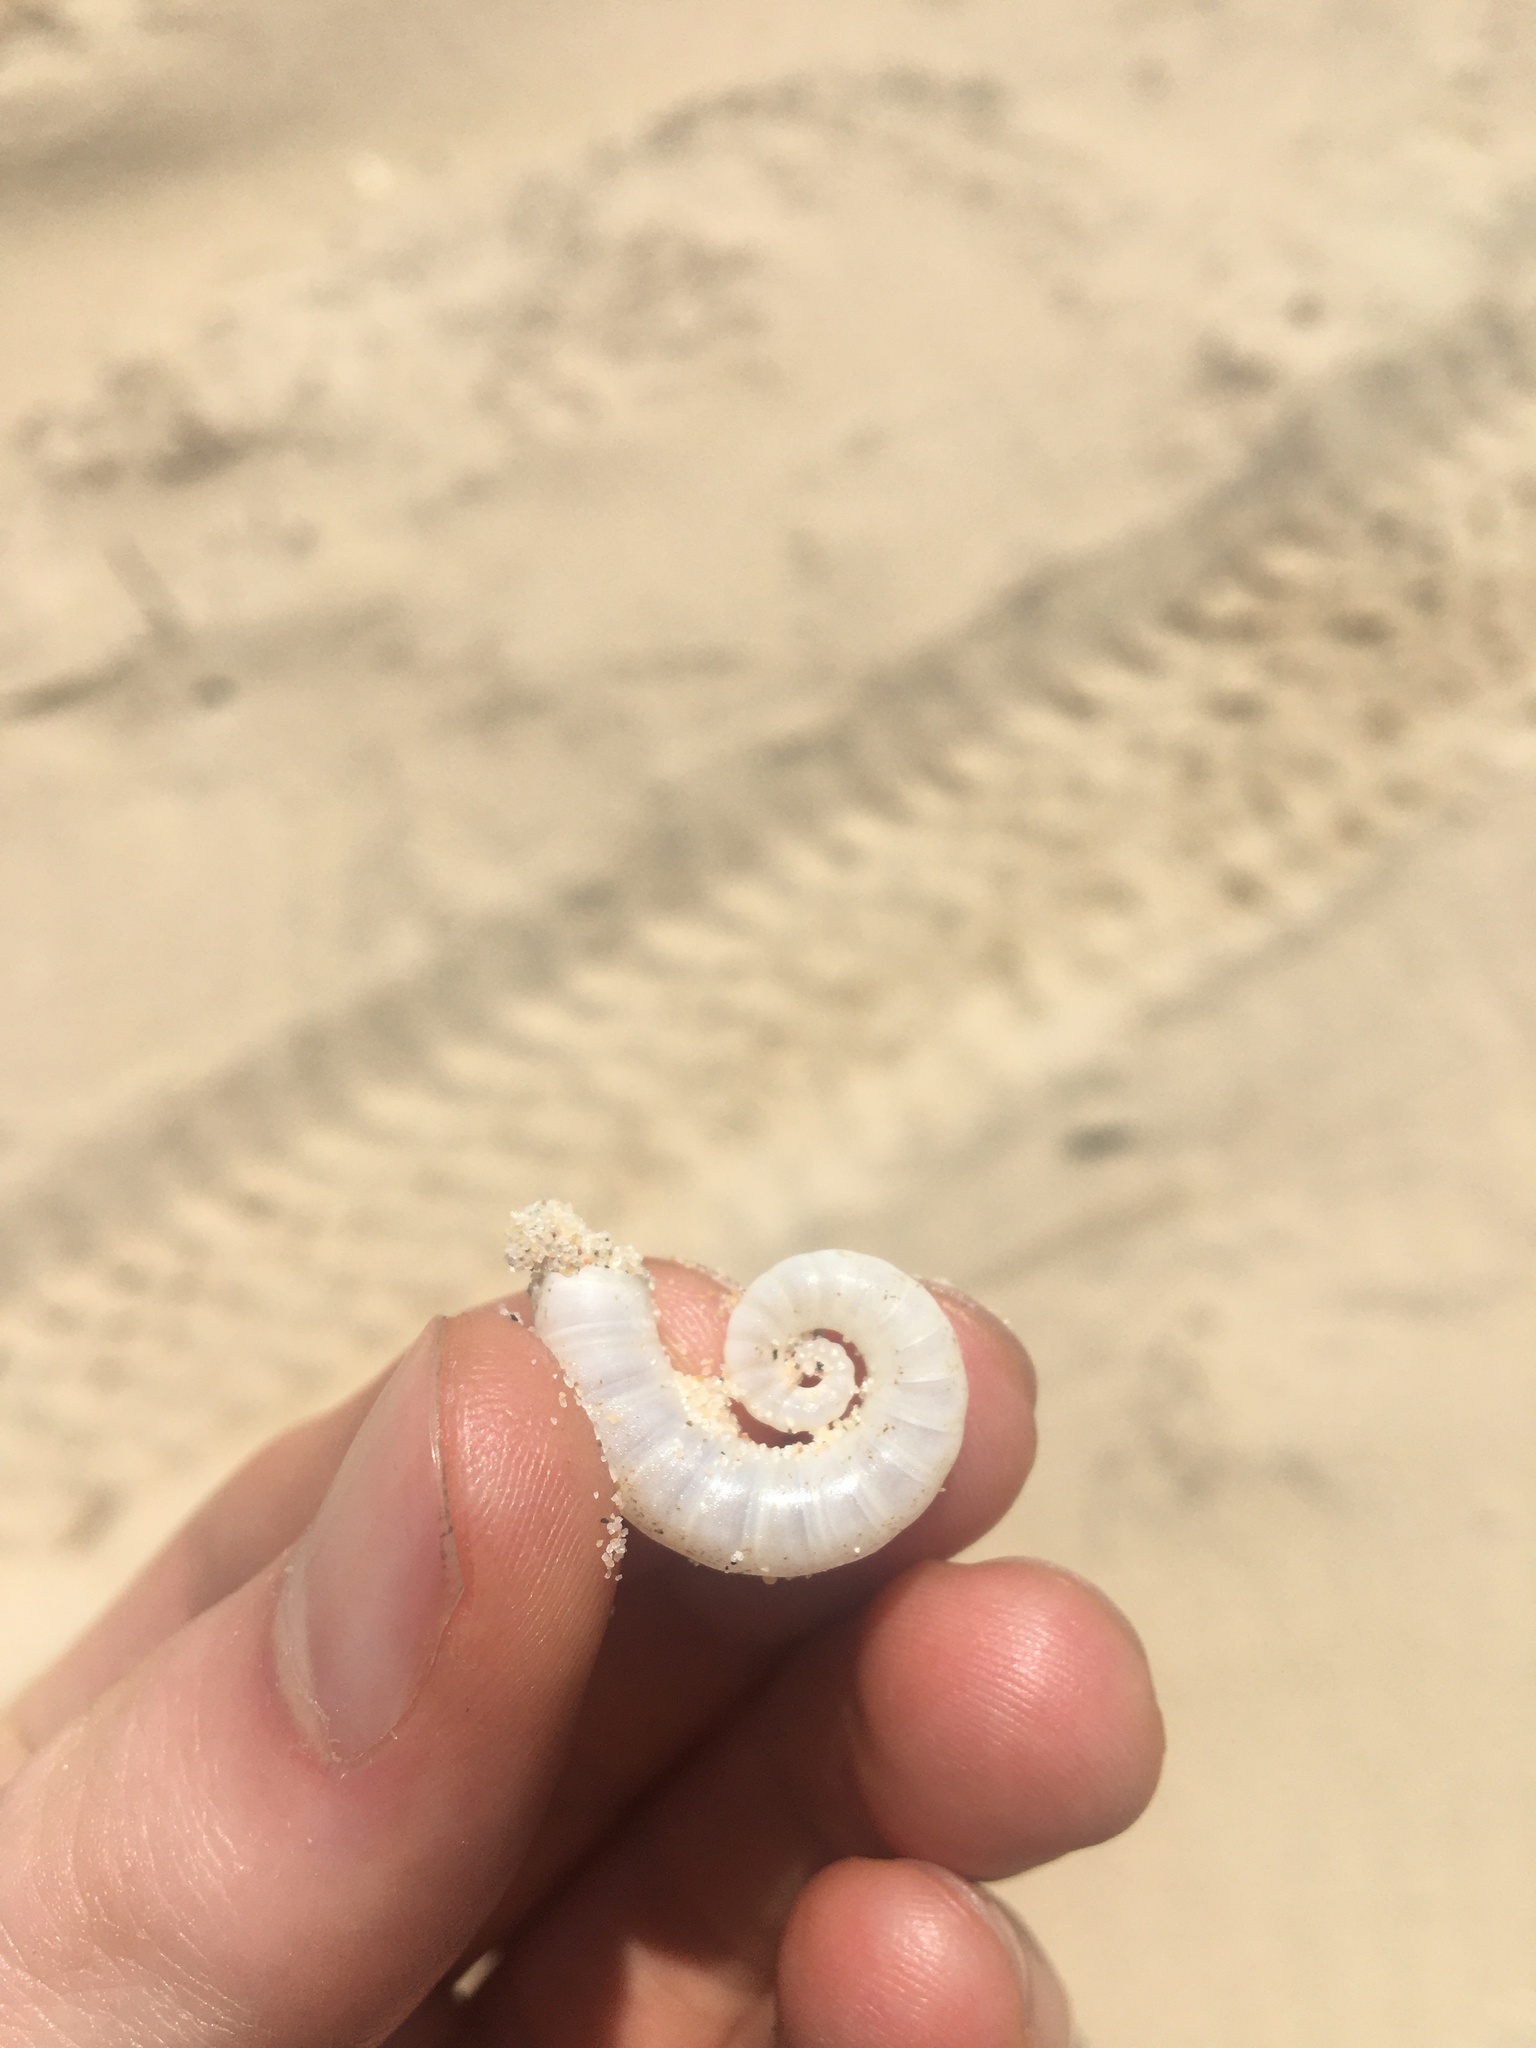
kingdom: Animalia
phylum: Mollusca
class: Cephalopoda
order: Spirulida
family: Spirulidae
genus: Spirula
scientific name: Spirula spirula
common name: Ram's horn squid
